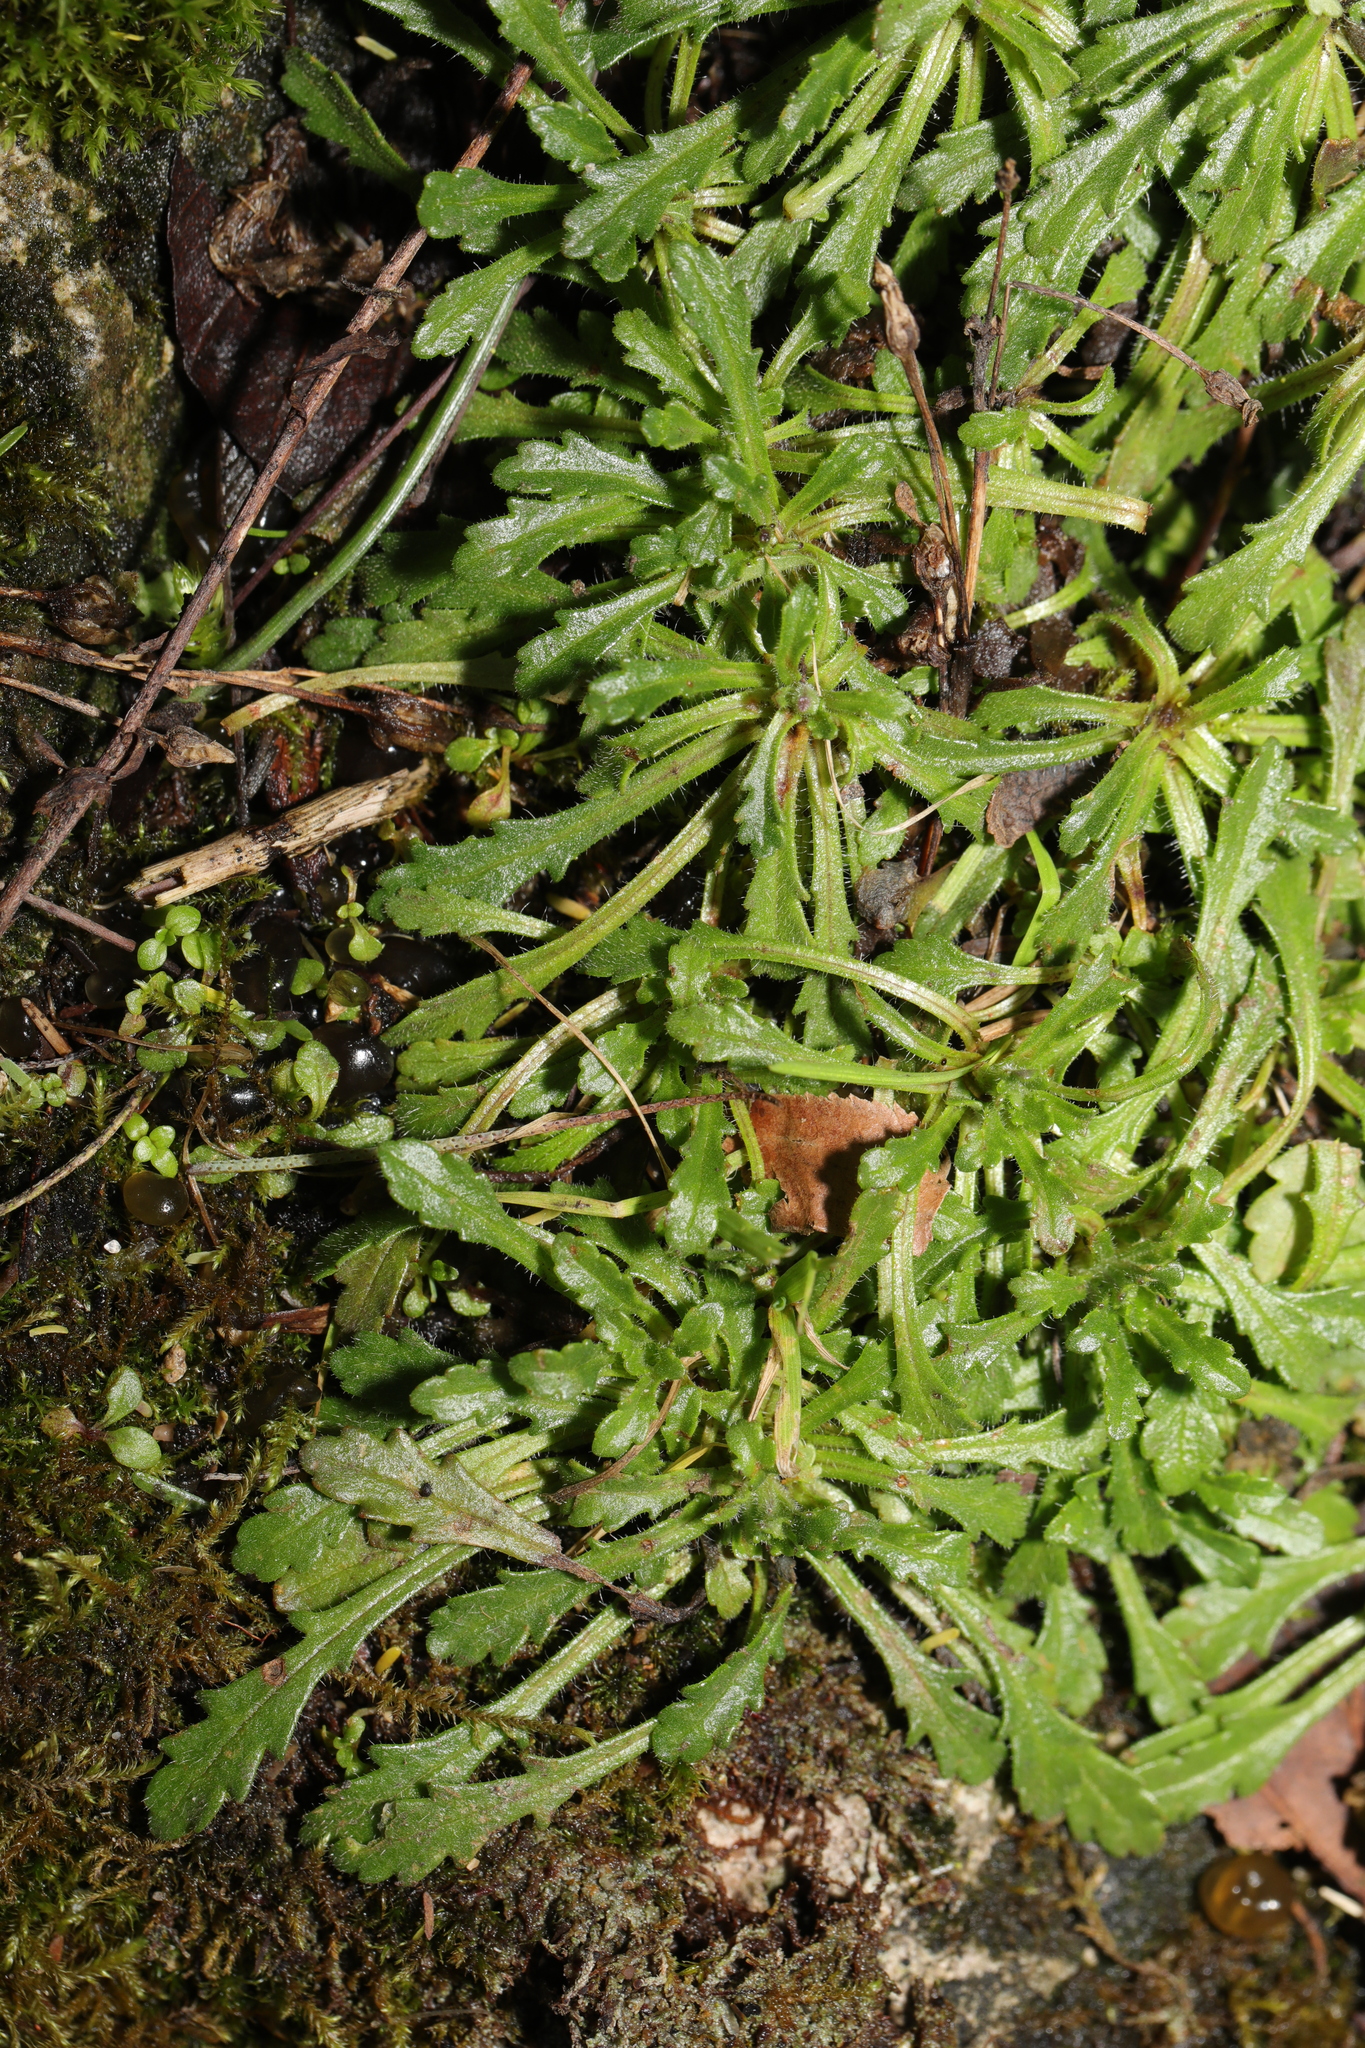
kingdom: Plantae
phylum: Tracheophyta
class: Magnoliopsida
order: Lamiales
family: Plantaginaceae
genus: Erinus
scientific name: Erinus alpinus
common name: Fairy foxglove
